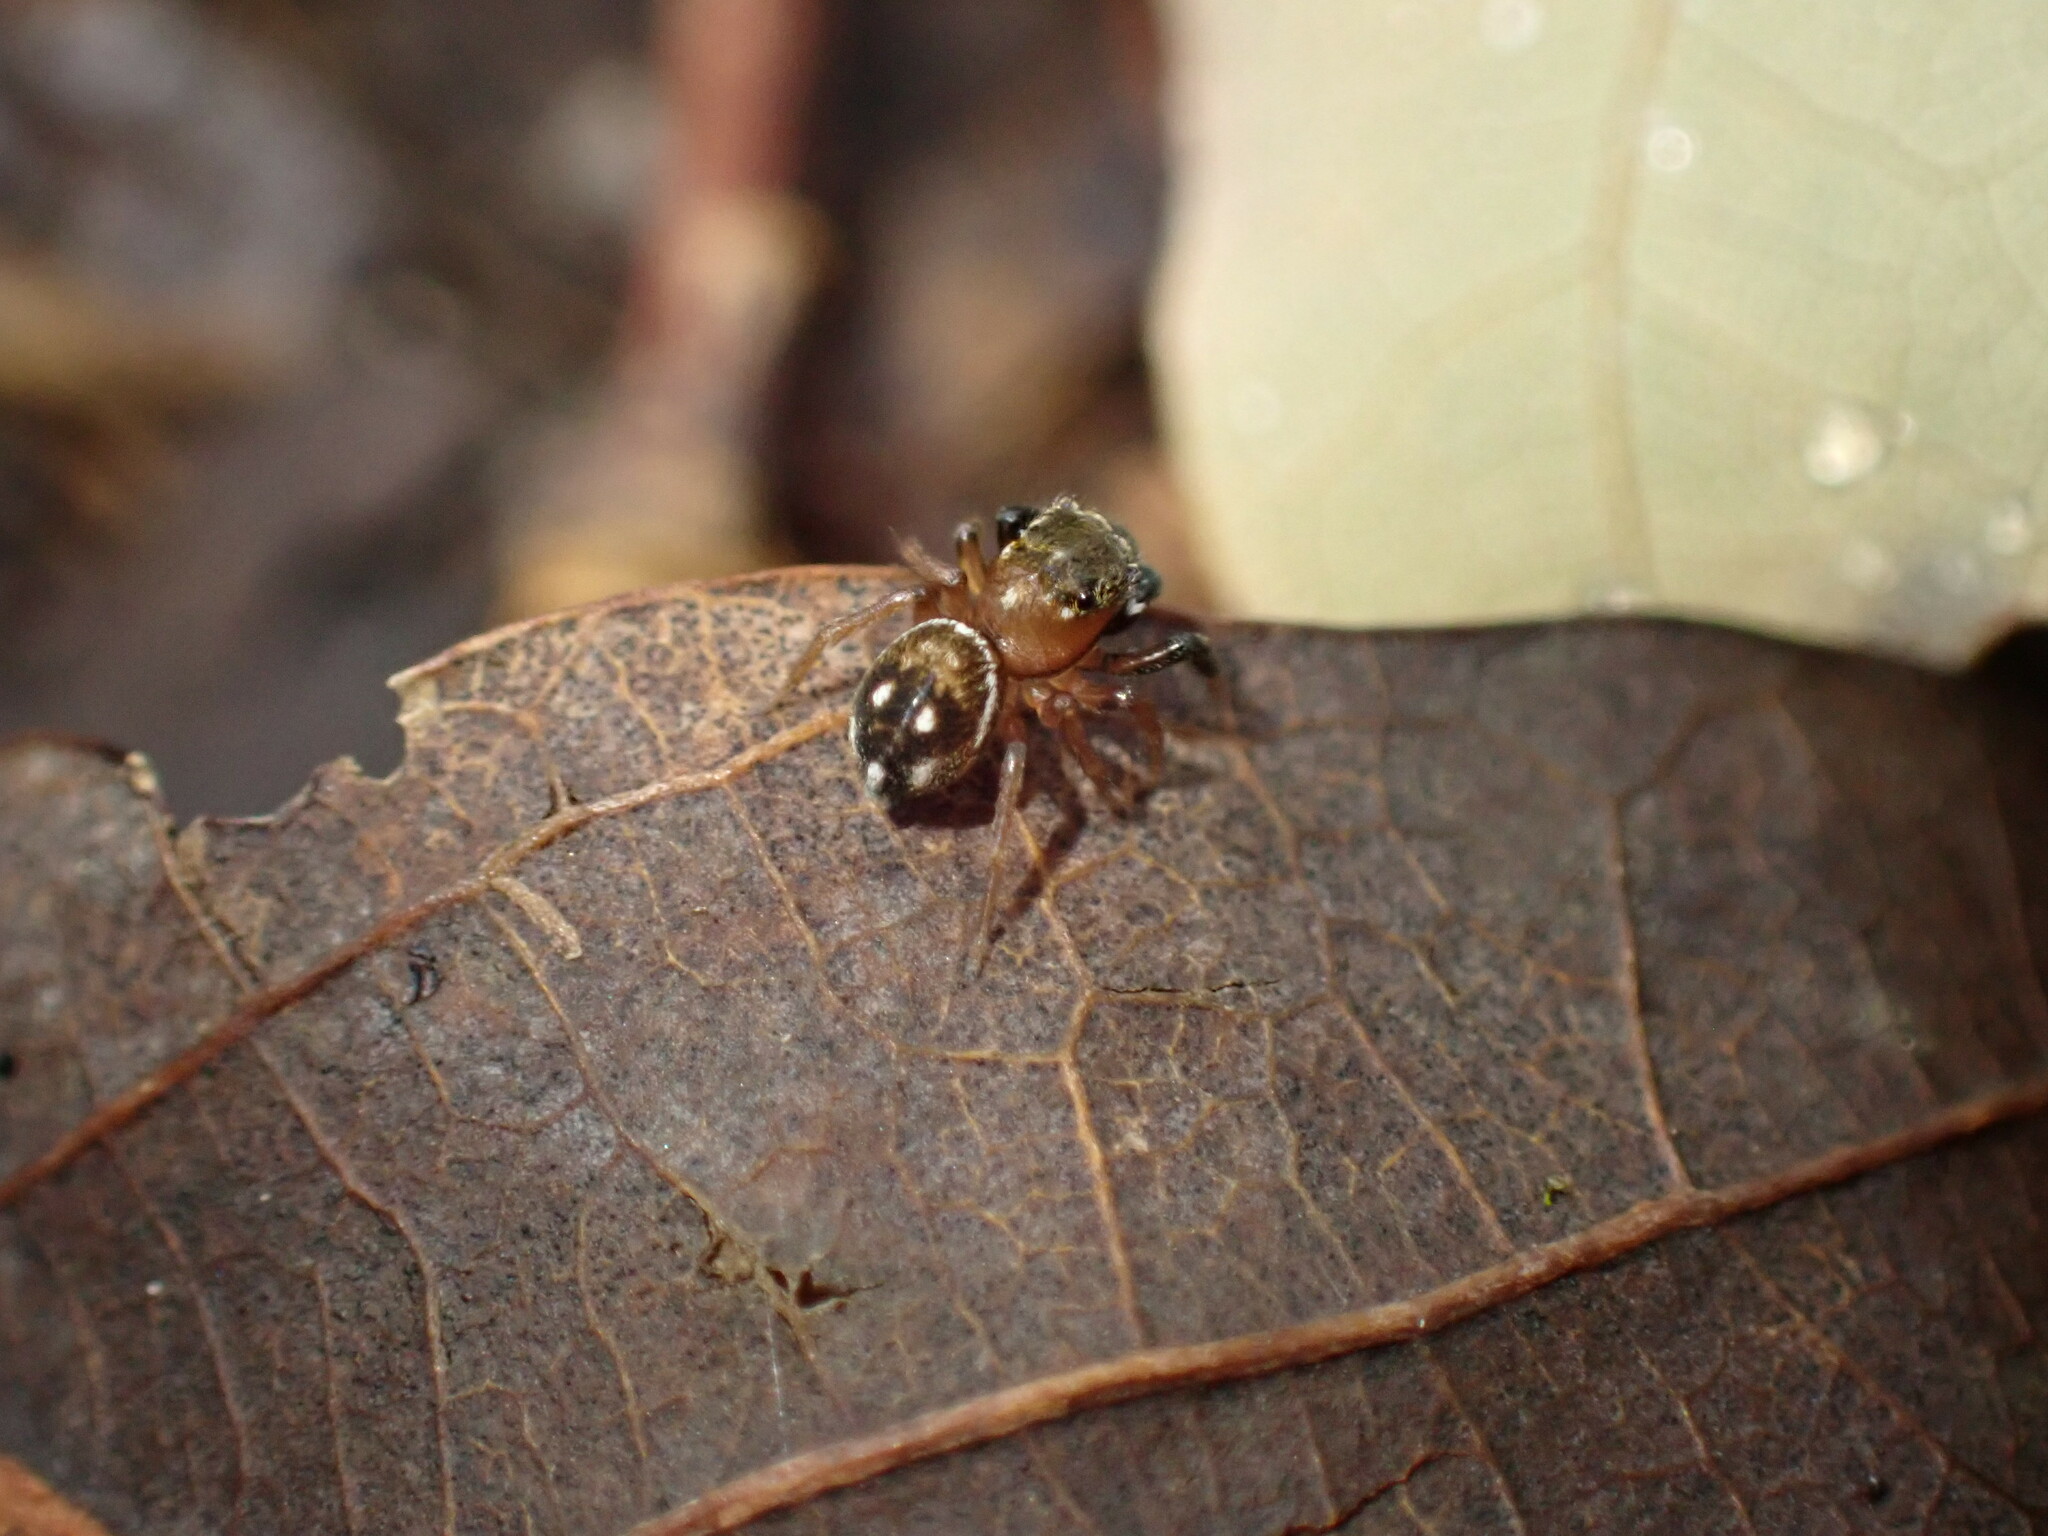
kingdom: Animalia
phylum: Arthropoda
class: Arachnida
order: Araneae
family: Salticidae
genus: Chinattus
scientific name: Chinattus parvulus
